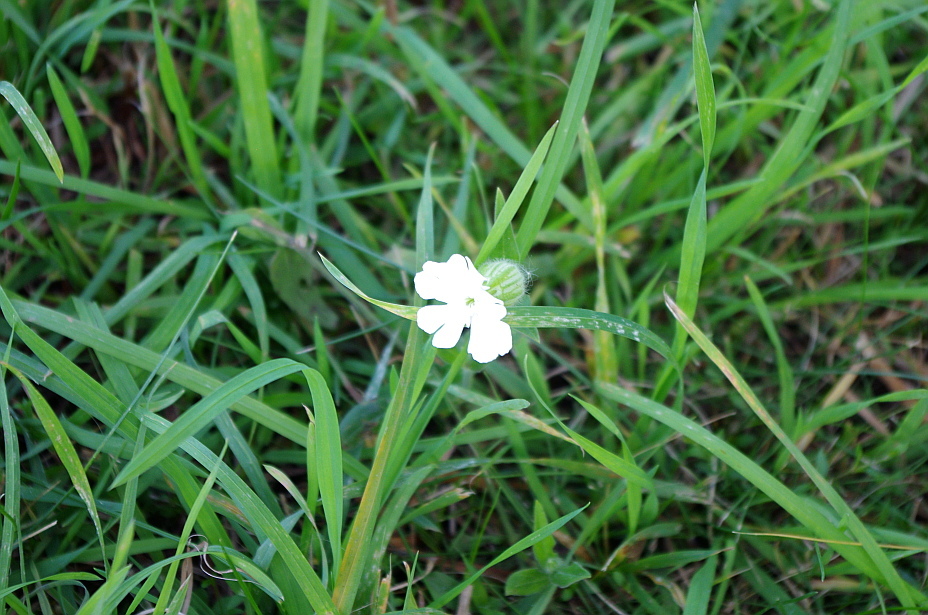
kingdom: Plantae
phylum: Tracheophyta
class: Magnoliopsida
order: Caryophyllales
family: Caryophyllaceae
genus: Silene
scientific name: Silene latifolia
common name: White campion
